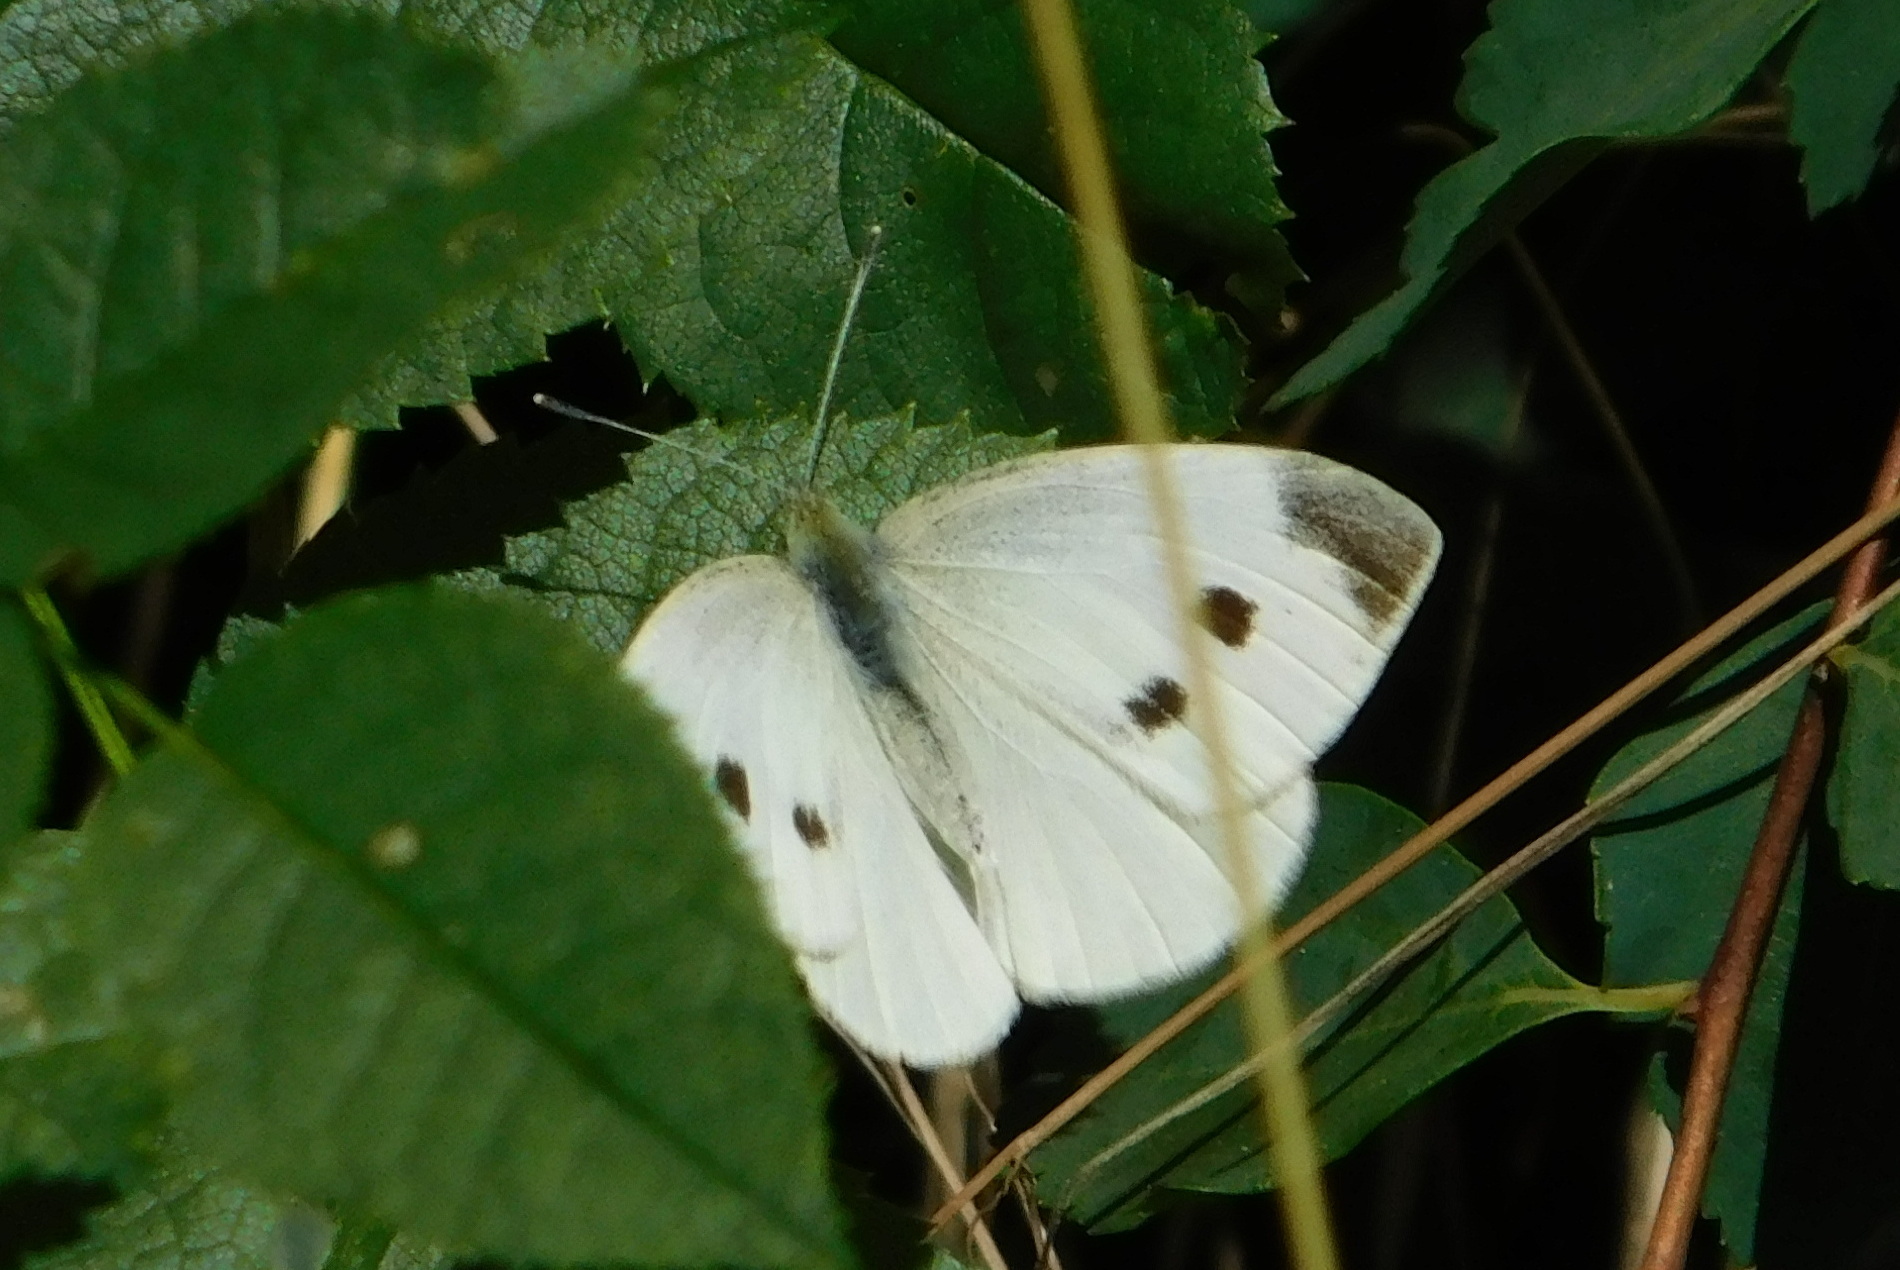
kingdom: Animalia
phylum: Arthropoda
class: Insecta
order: Lepidoptera
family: Pieridae
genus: Pieris
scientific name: Pieris rapae
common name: Small white
